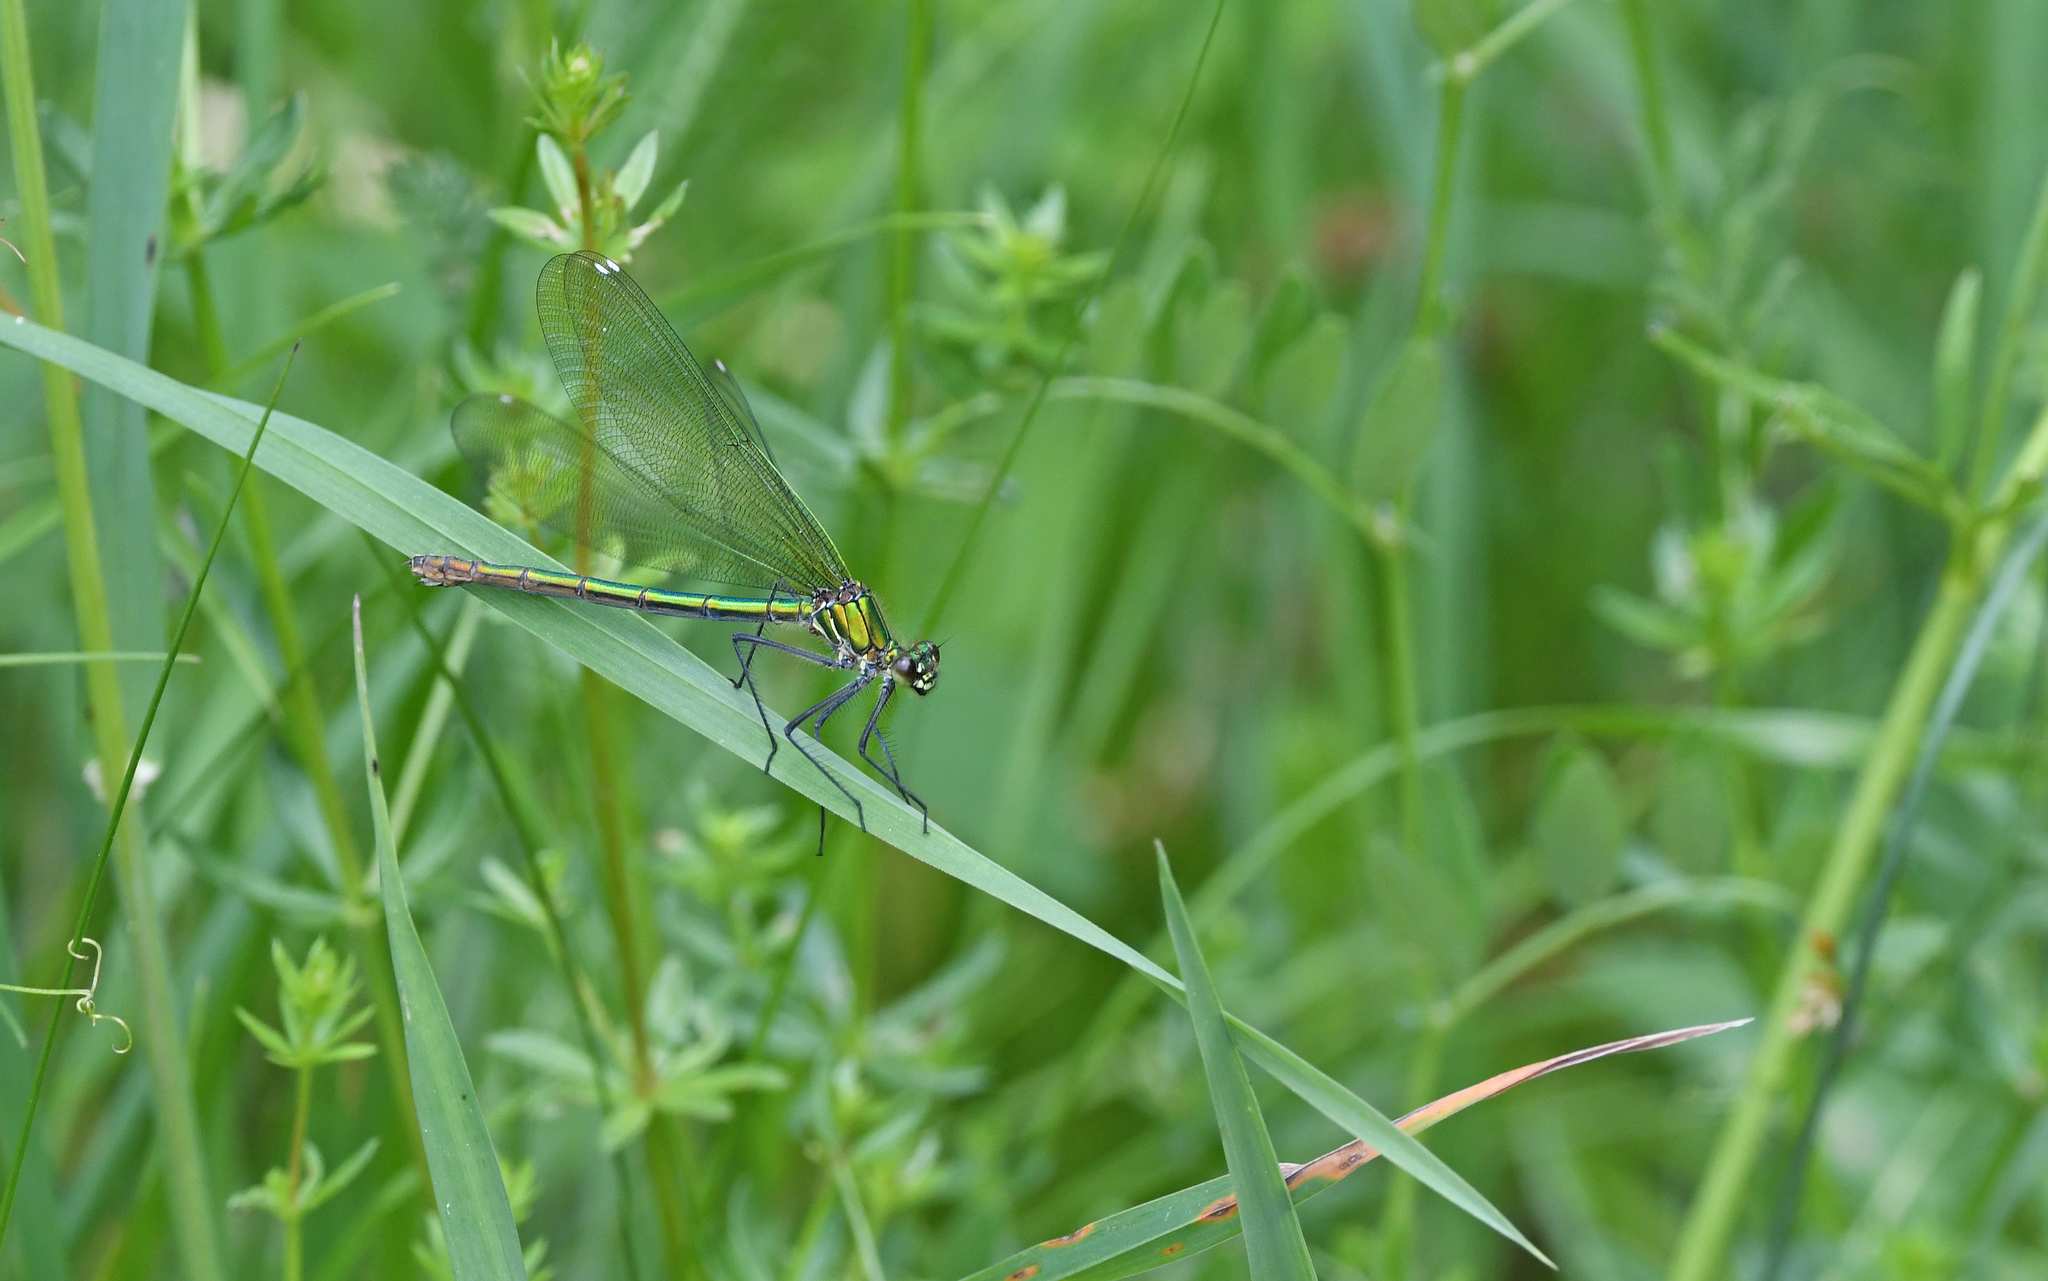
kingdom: Animalia
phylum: Arthropoda
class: Insecta
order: Odonata
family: Calopterygidae
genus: Calopteryx
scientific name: Calopteryx splendens
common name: Banded demoiselle
